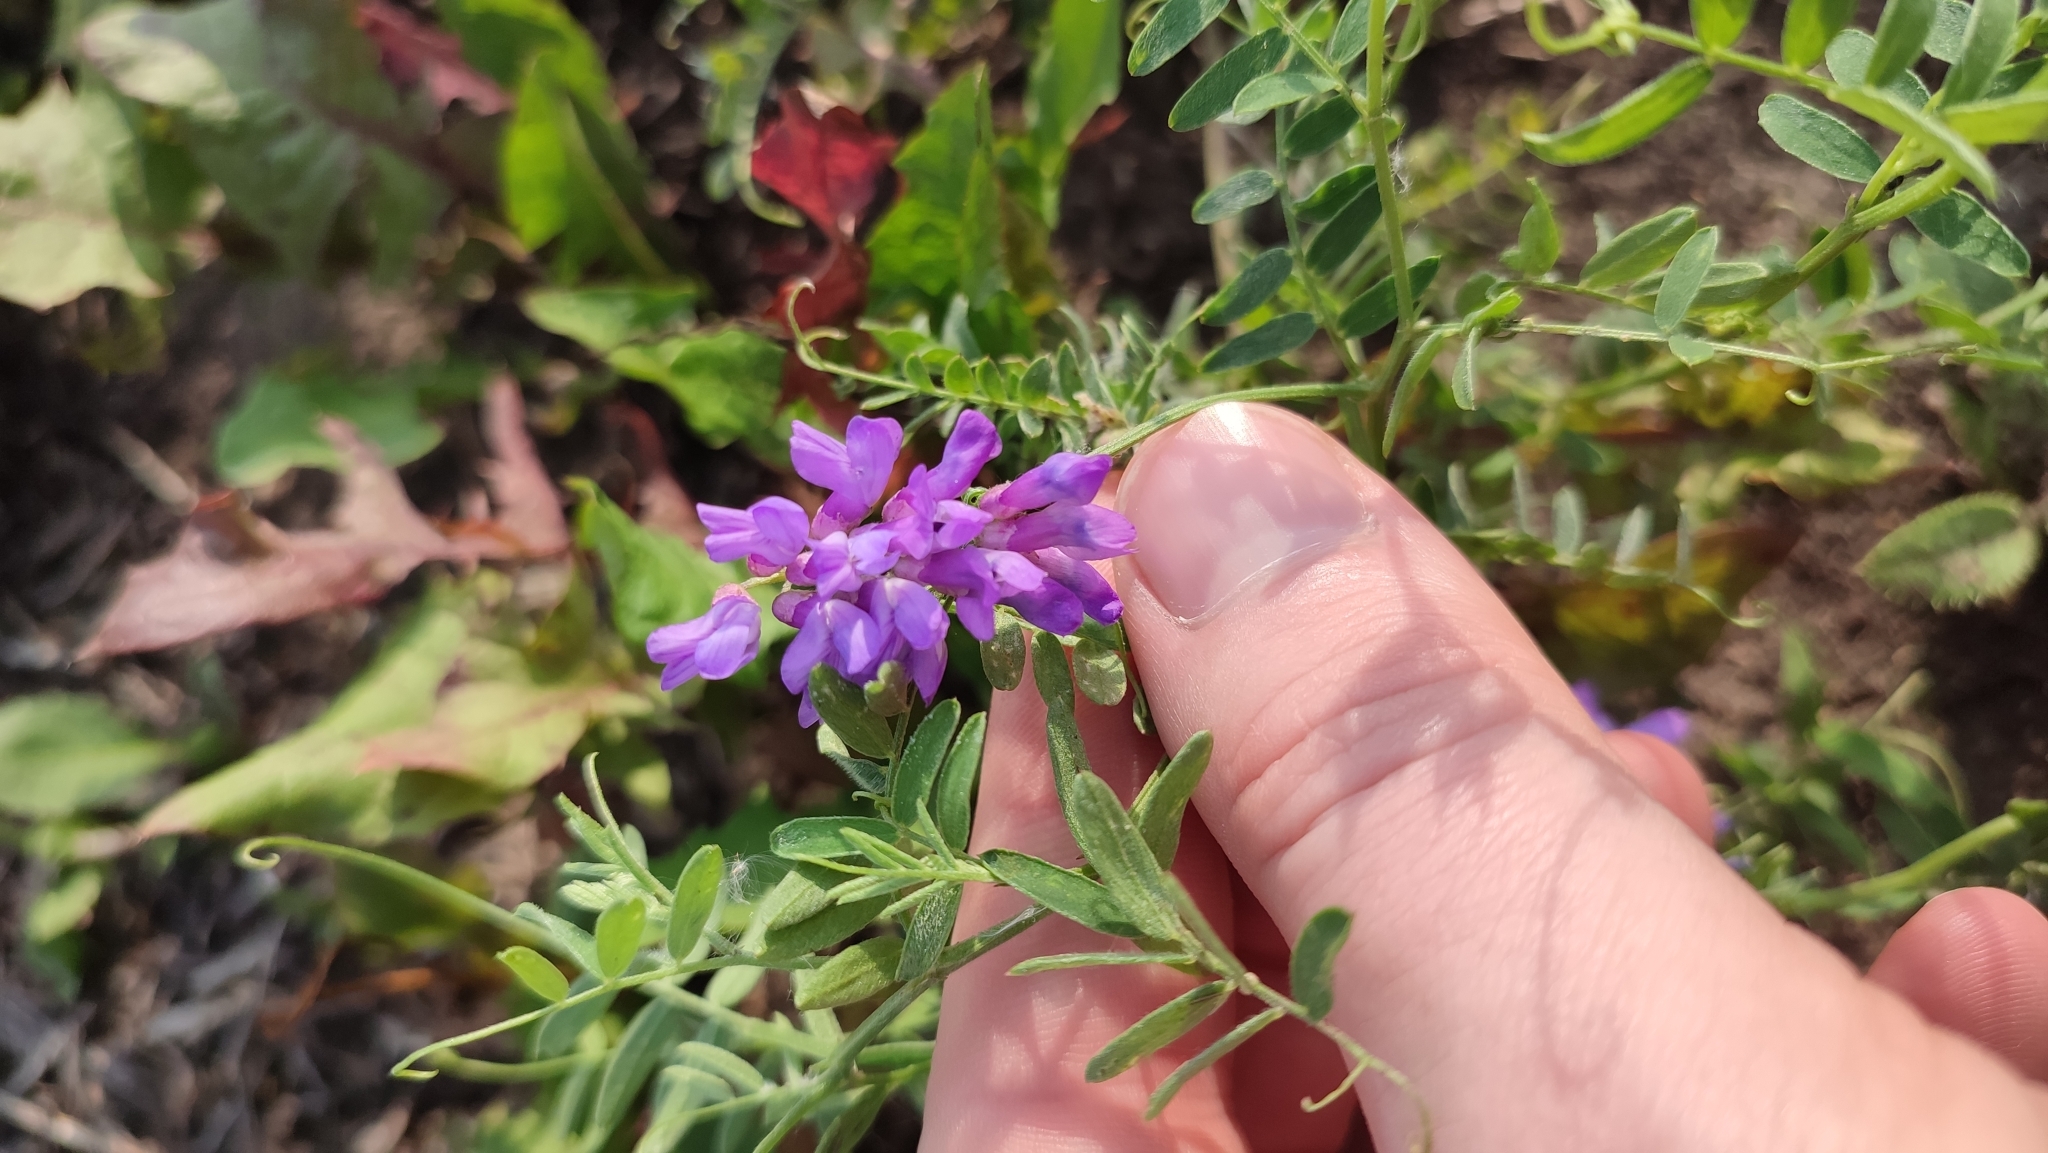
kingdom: Plantae
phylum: Tracheophyta
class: Magnoliopsida
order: Fabales
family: Fabaceae
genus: Vicia
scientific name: Vicia cracca
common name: Bird vetch
